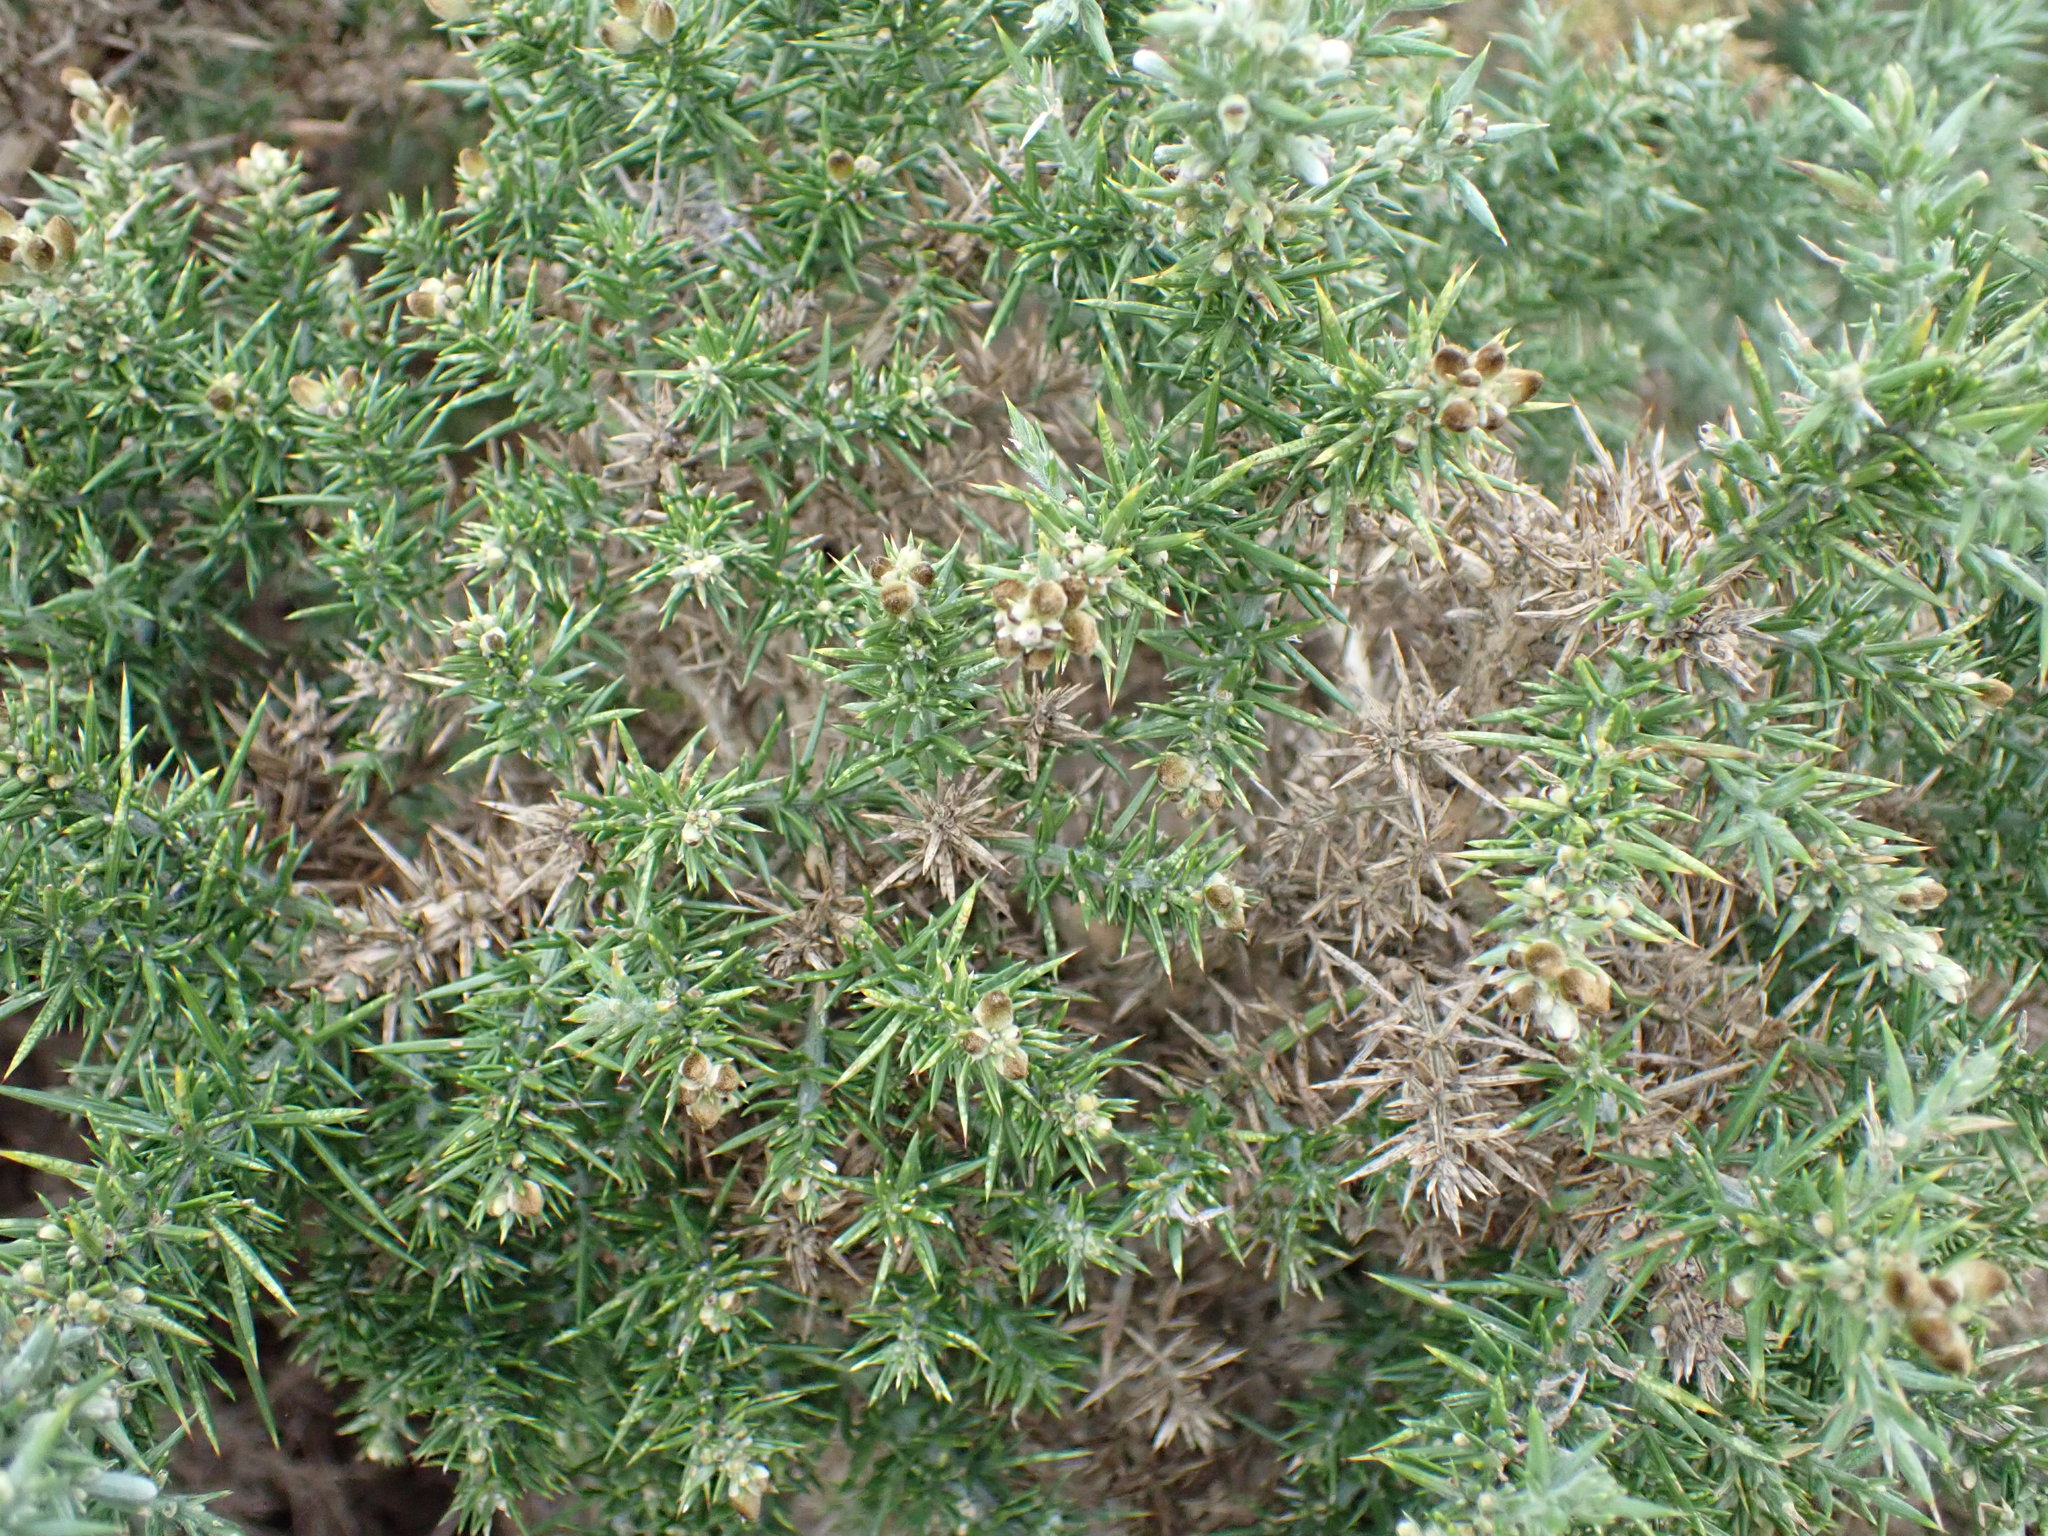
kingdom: Plantae
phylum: Tracheophyta
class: Magnoliopsida
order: Fabales
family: Fabaceae
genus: Ulex
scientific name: Ulex europaeus
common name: Common gorse
